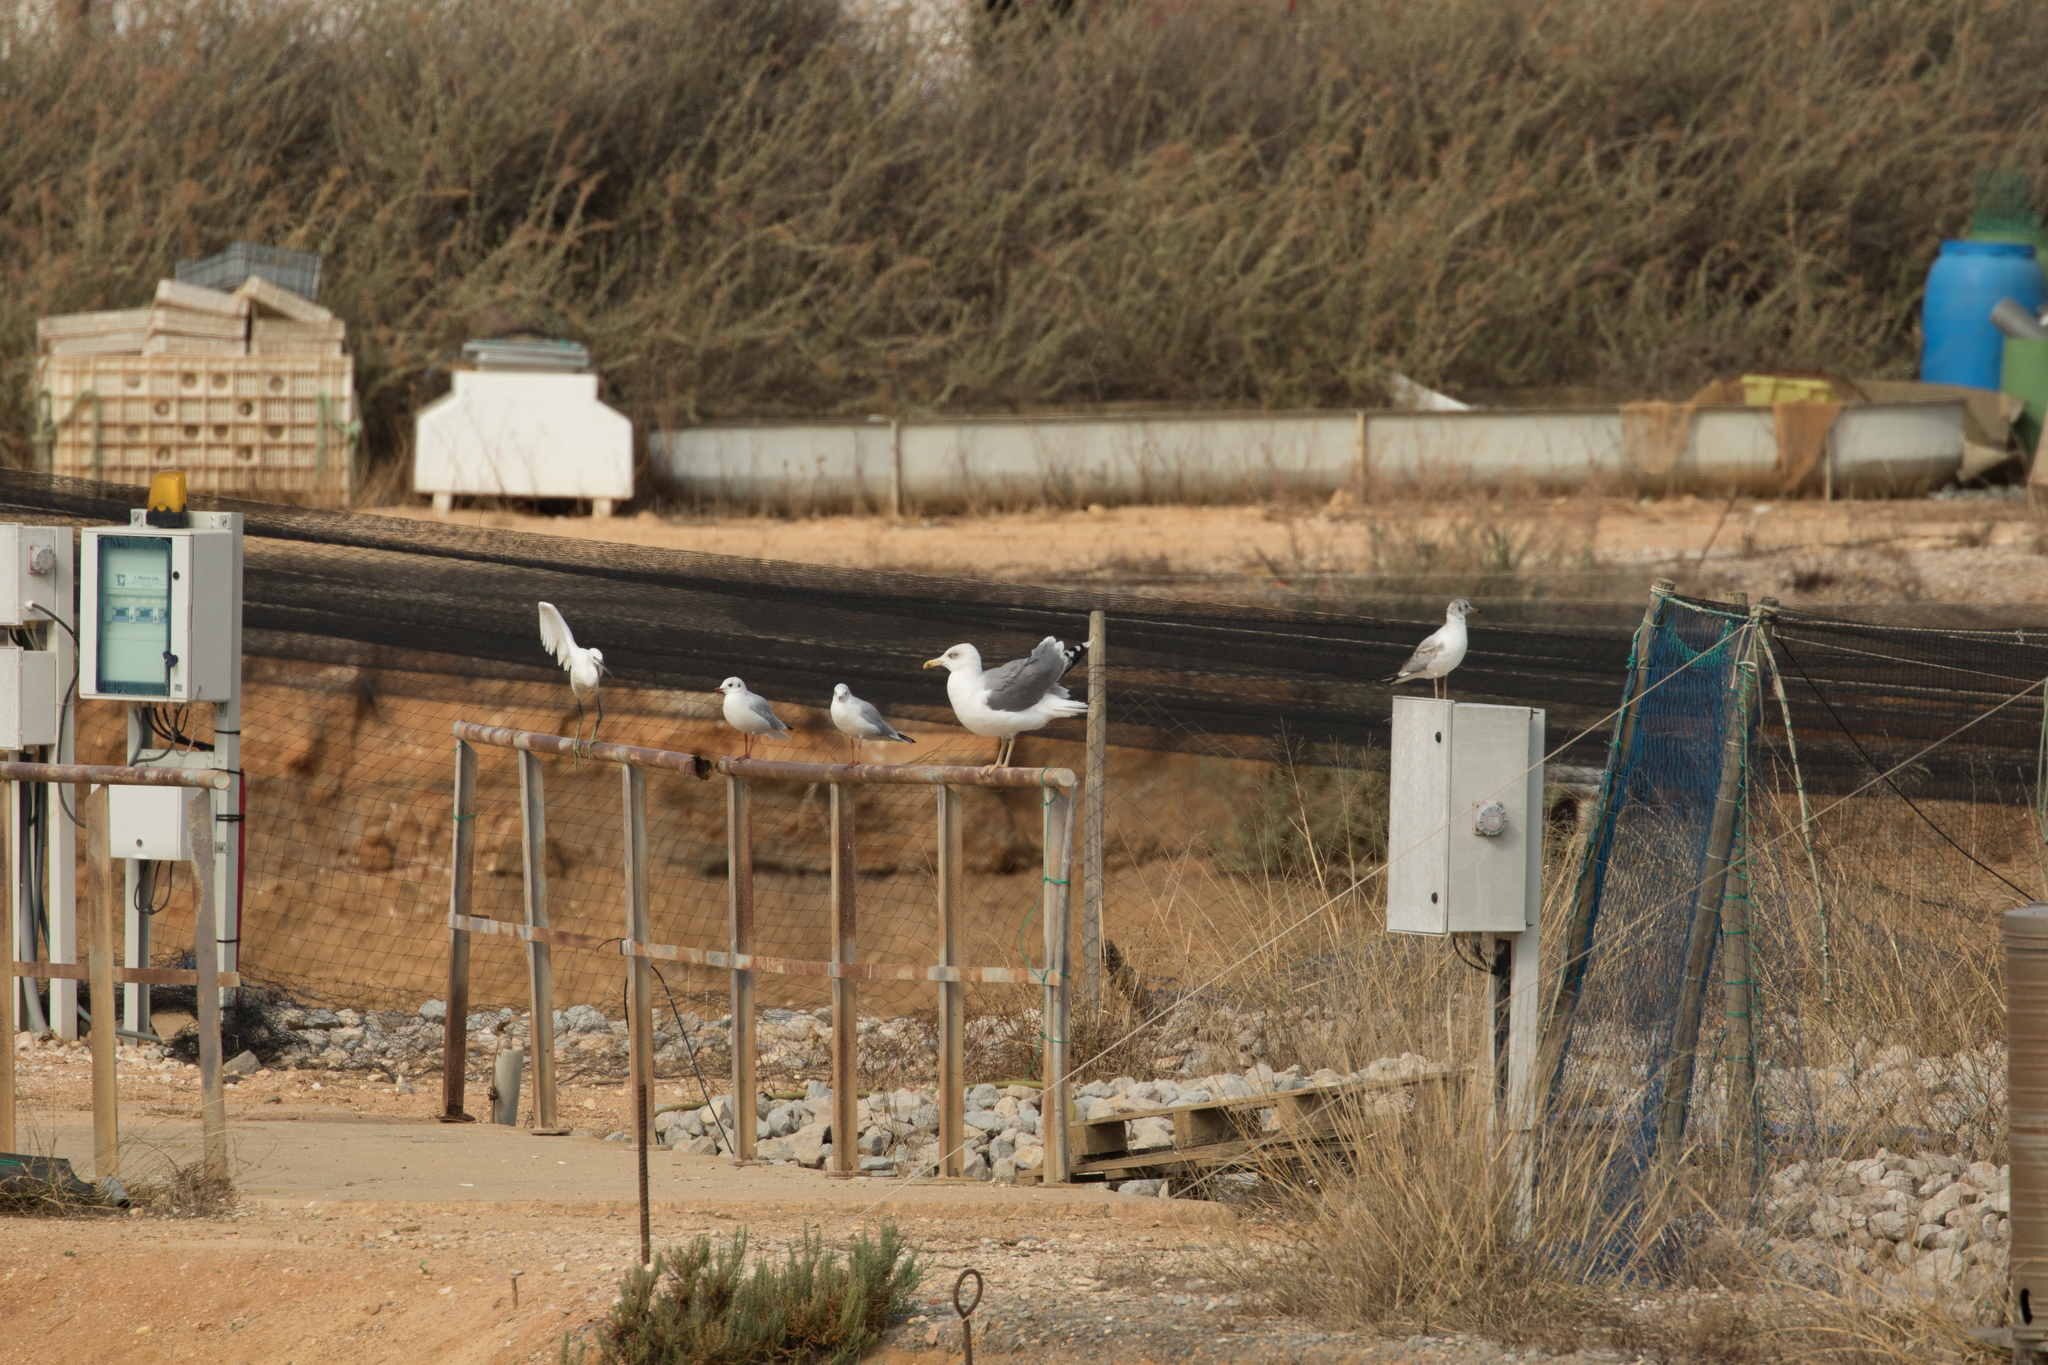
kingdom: Animalia
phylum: Chordata
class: Aves
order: Charadriiformes
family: Laridae
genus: Chroicocephalus
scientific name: Chroicocephalus ridibundus
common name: Black-headed gull
